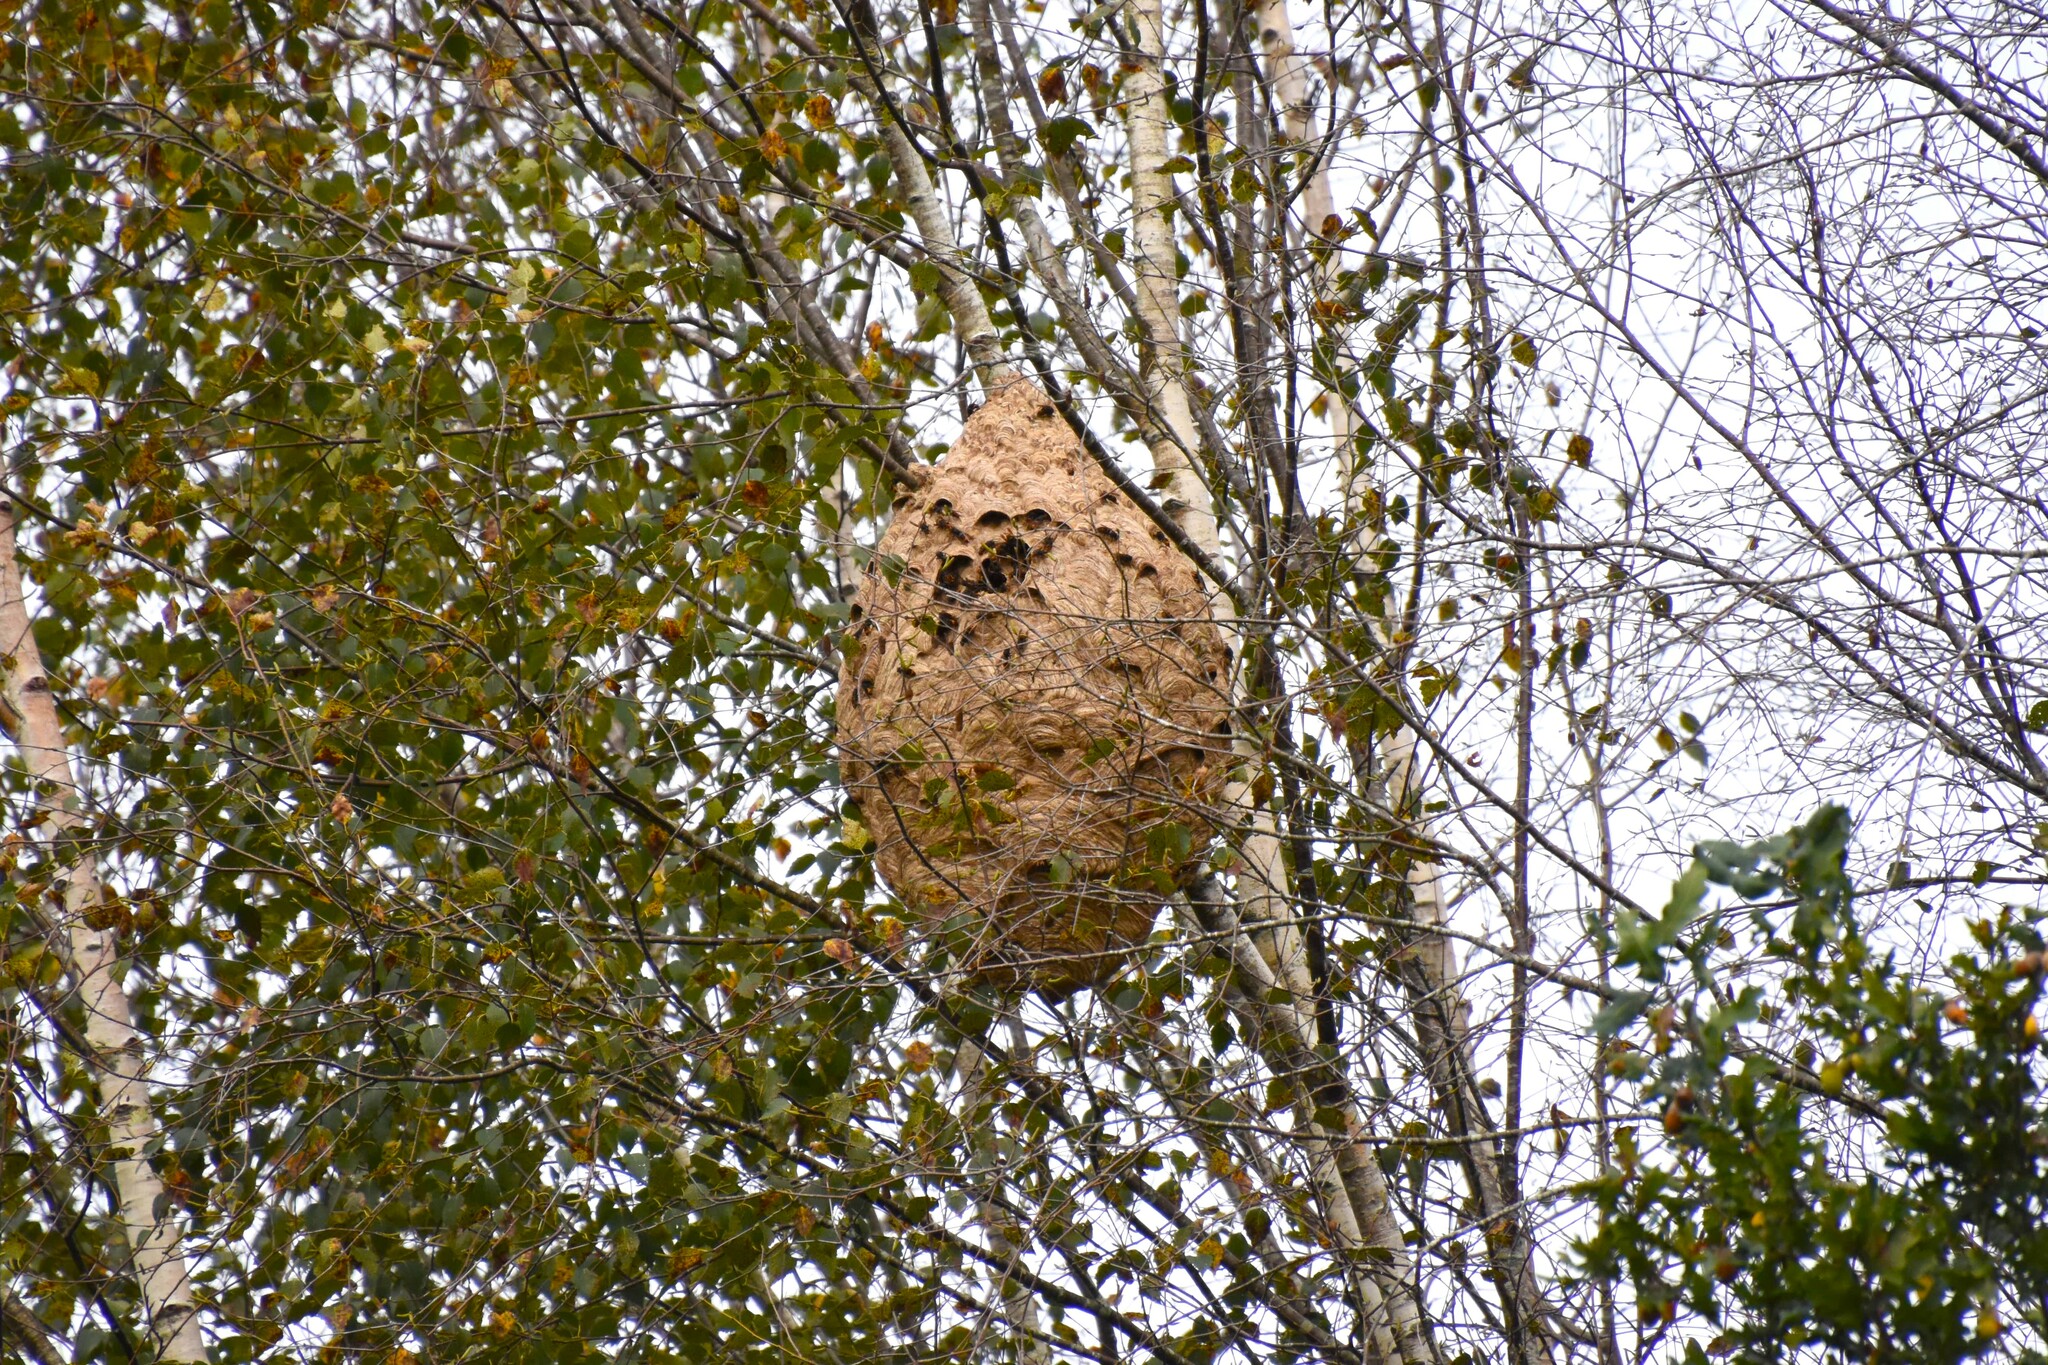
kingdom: Animalia
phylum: Arthropoda
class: Insecta
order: Hymenoptera
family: Vespidae
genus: Vespa
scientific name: Vespa velutina
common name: Asian hornet
